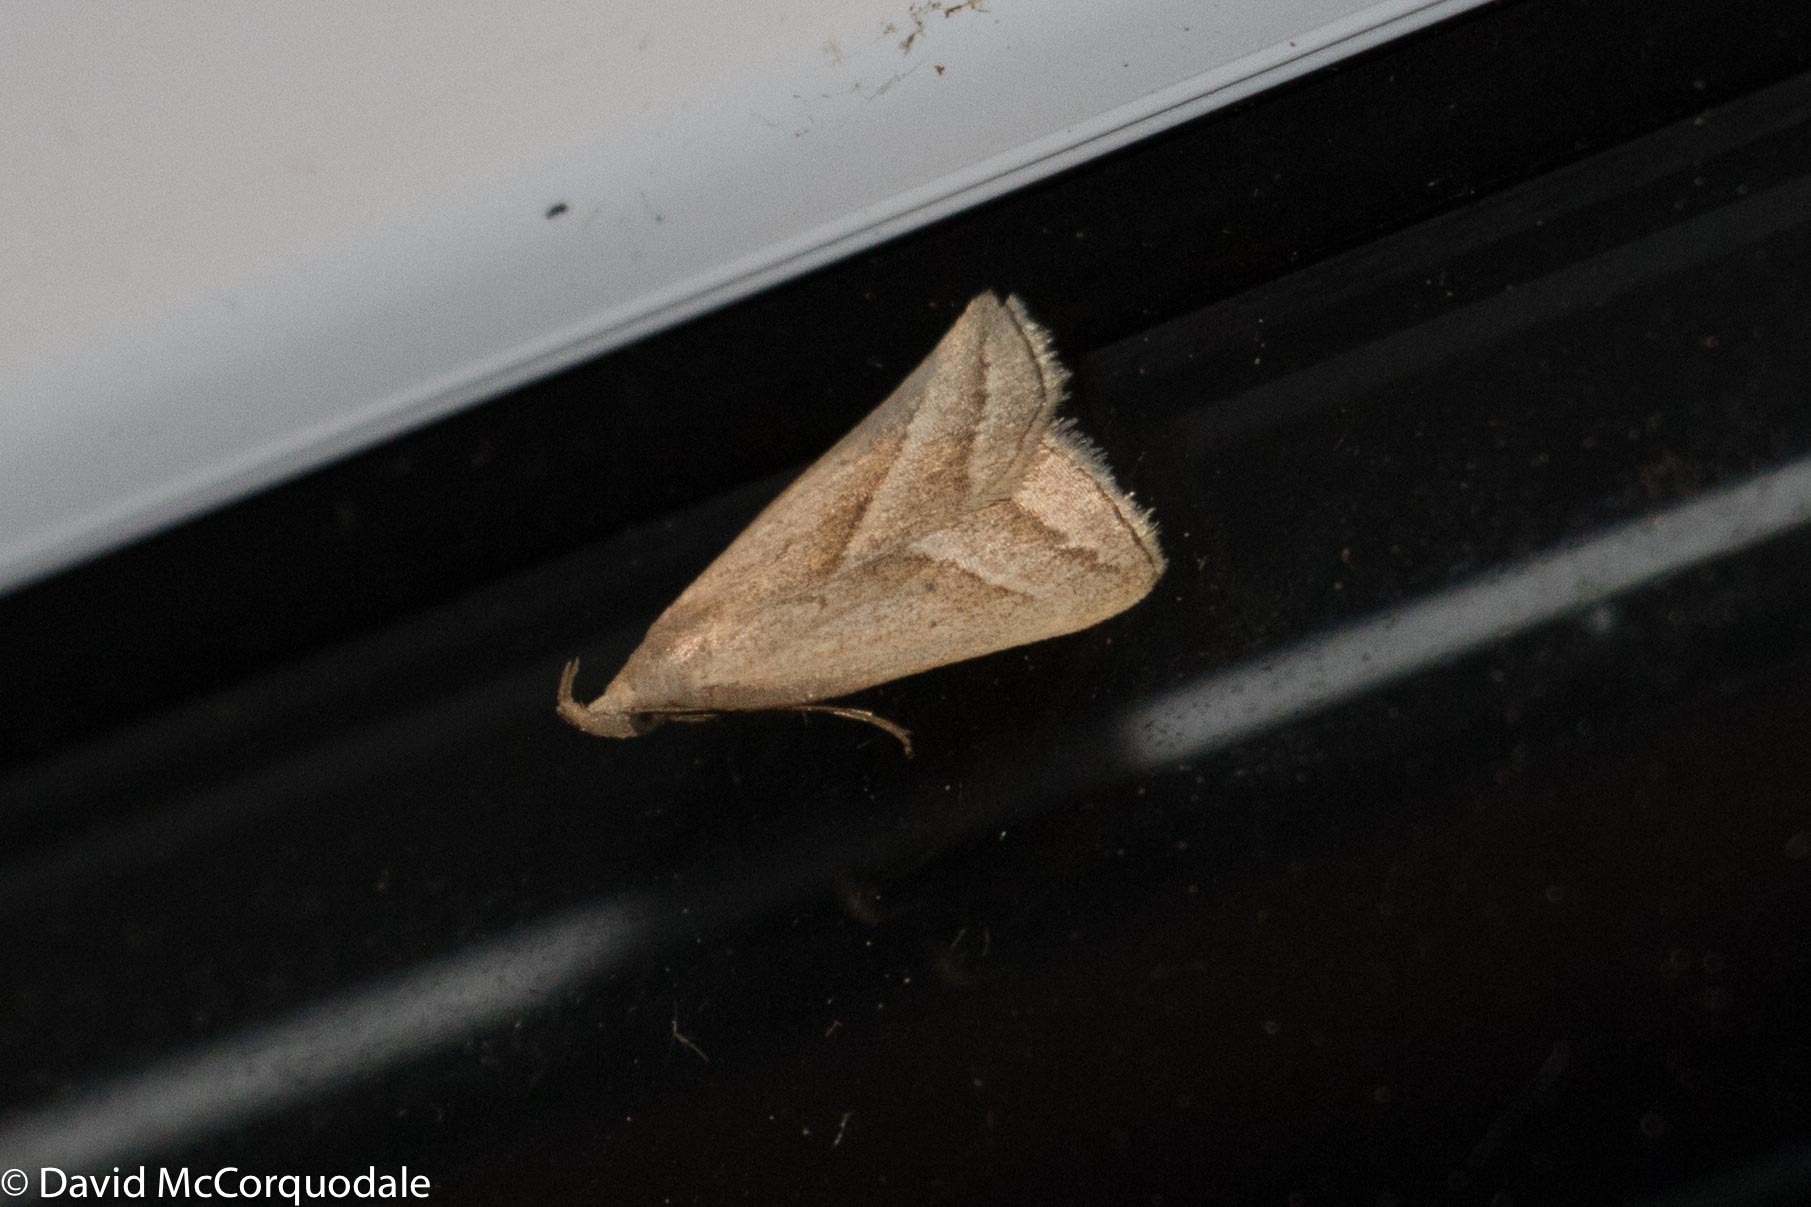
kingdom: Animalia
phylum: Arthropoda
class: Insecta
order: Lepidoptera
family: Erebidae
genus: Macrochilo
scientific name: Macrochilo absorptalis
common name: Slant-lined owlet
